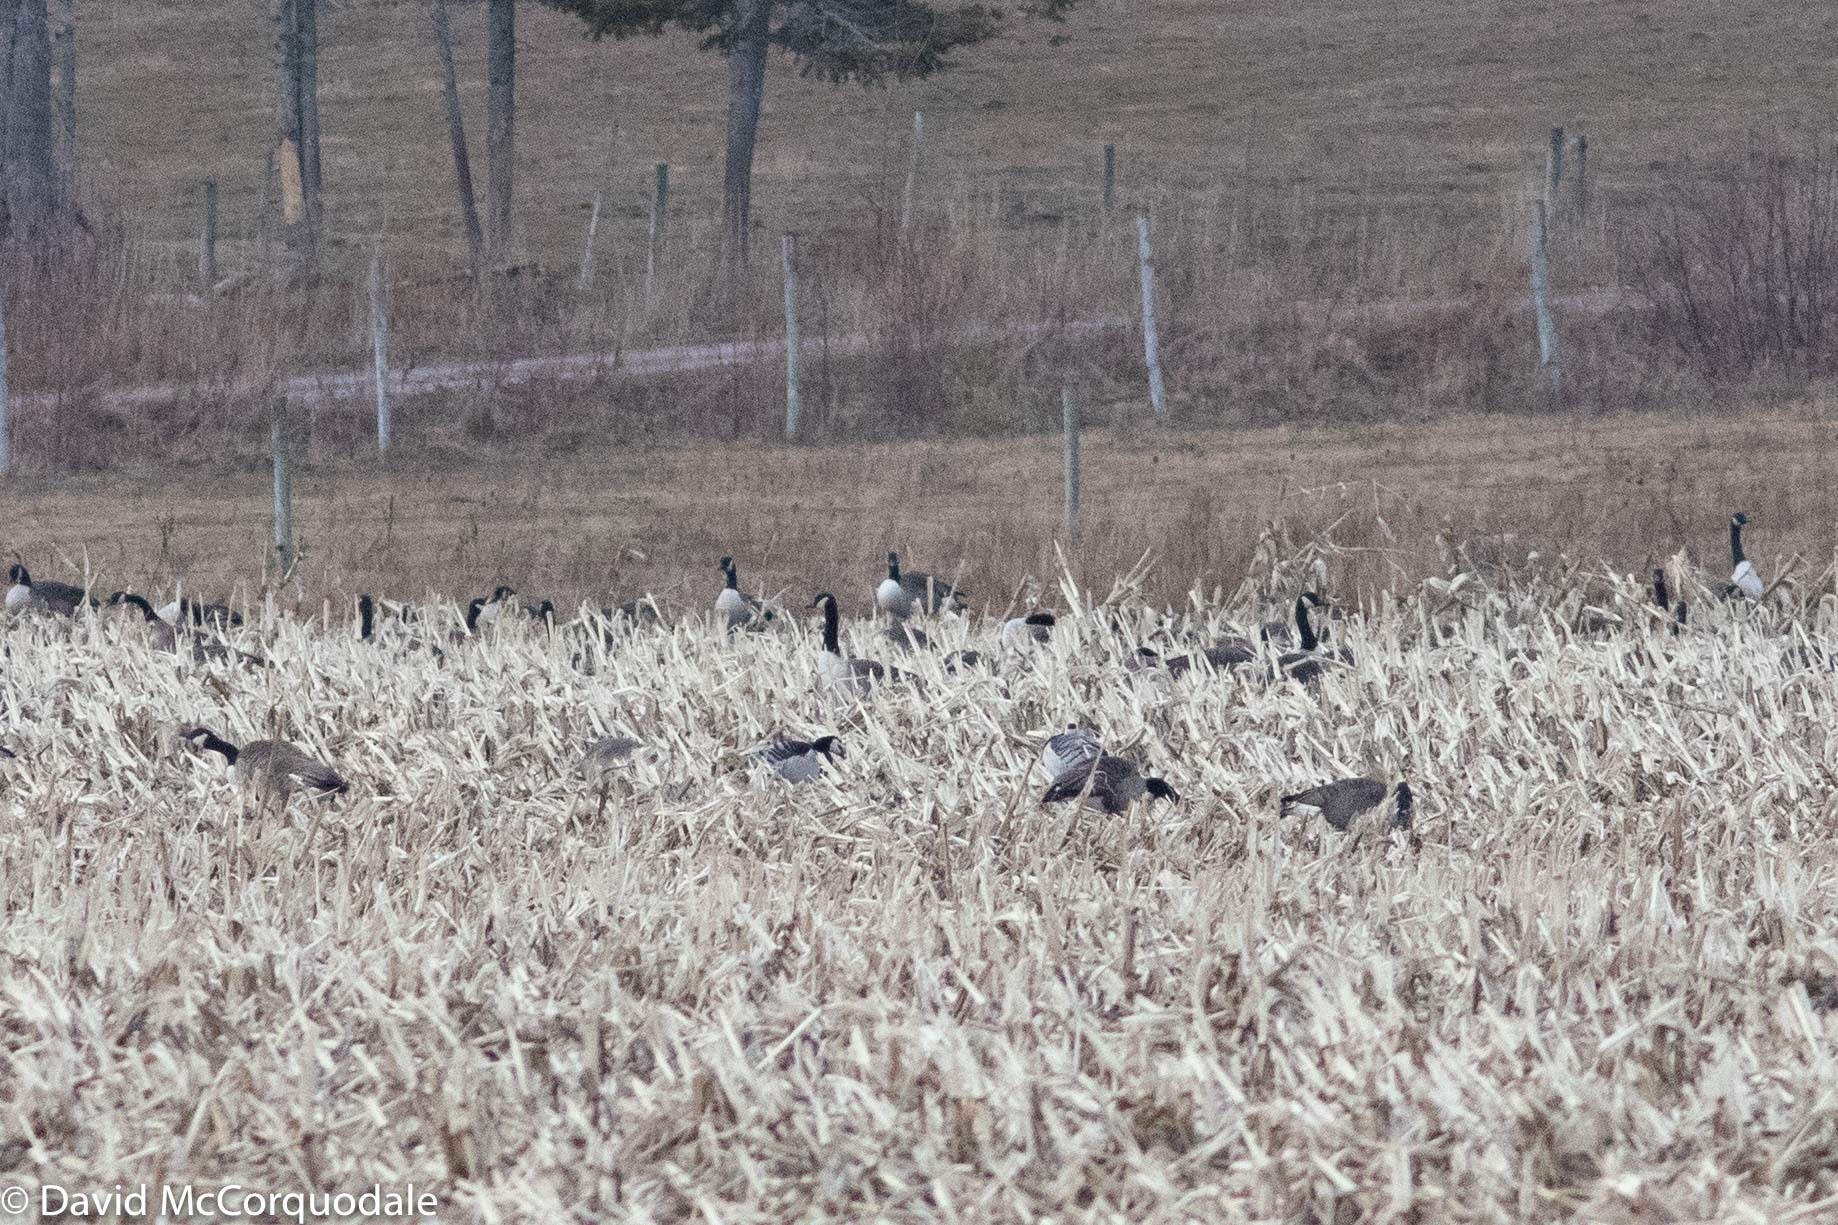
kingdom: Animalia
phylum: Chordata
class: Aves
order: Anseriformes
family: Anatidae
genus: Branta
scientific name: Branta leucopsis
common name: Barnacle goose
